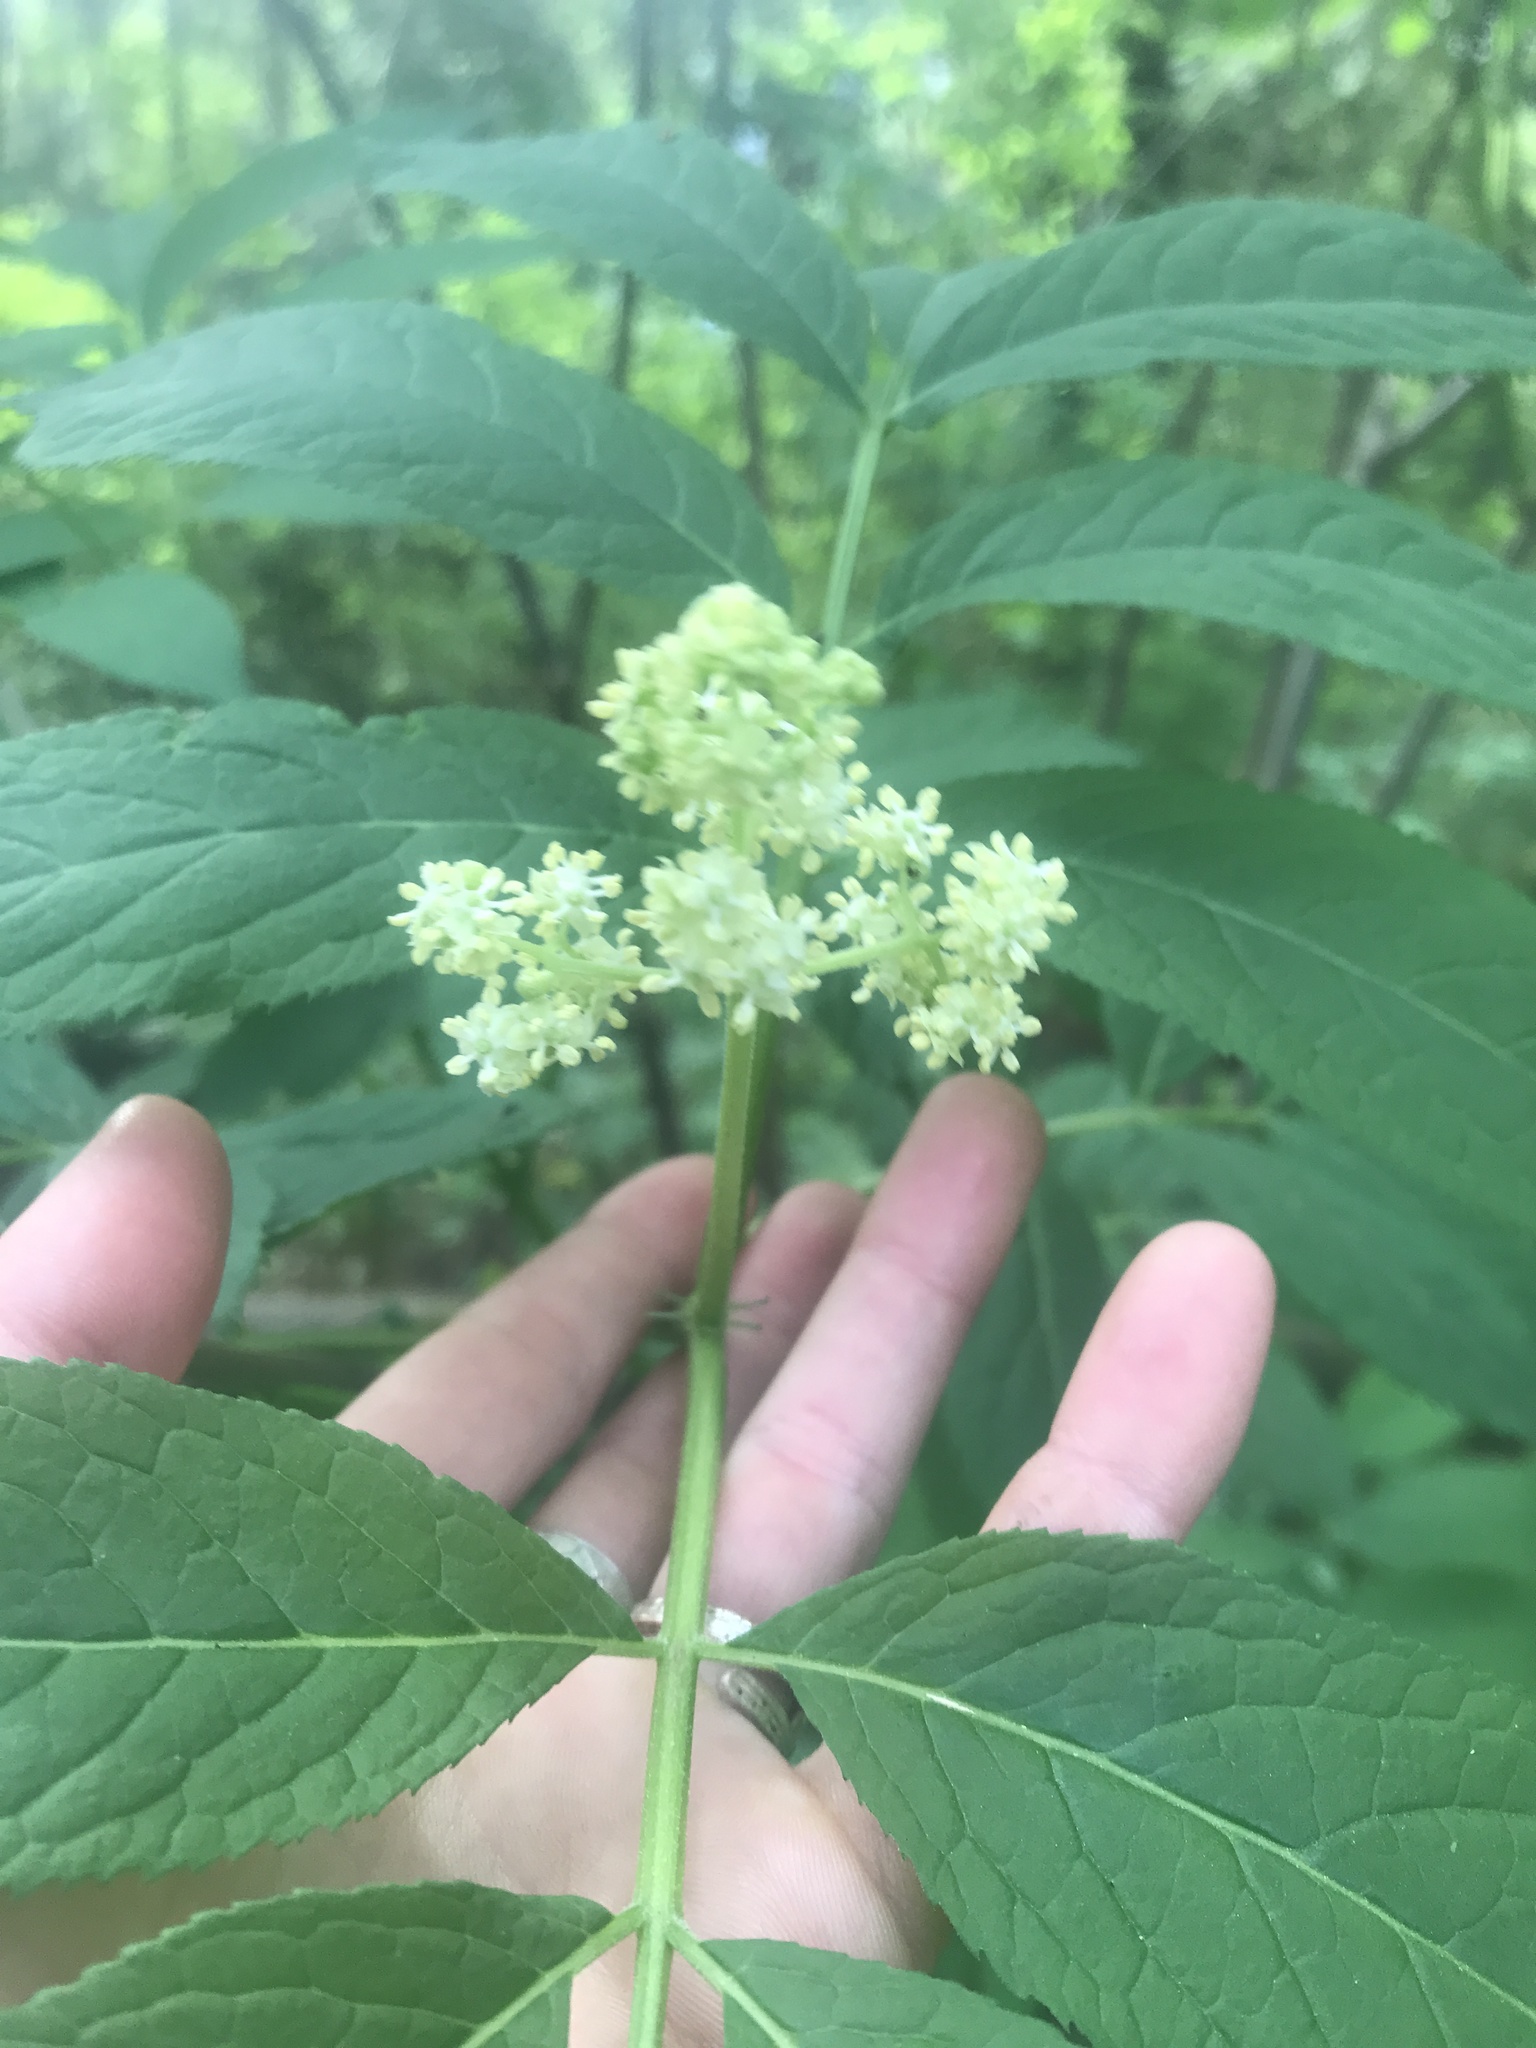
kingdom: Plantae
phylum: Tracheophyta
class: Magnoliopsida
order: Dipsacales
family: Viburnaceae
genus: Sambucus
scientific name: Sambucus racemosa
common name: Red-berried elder
